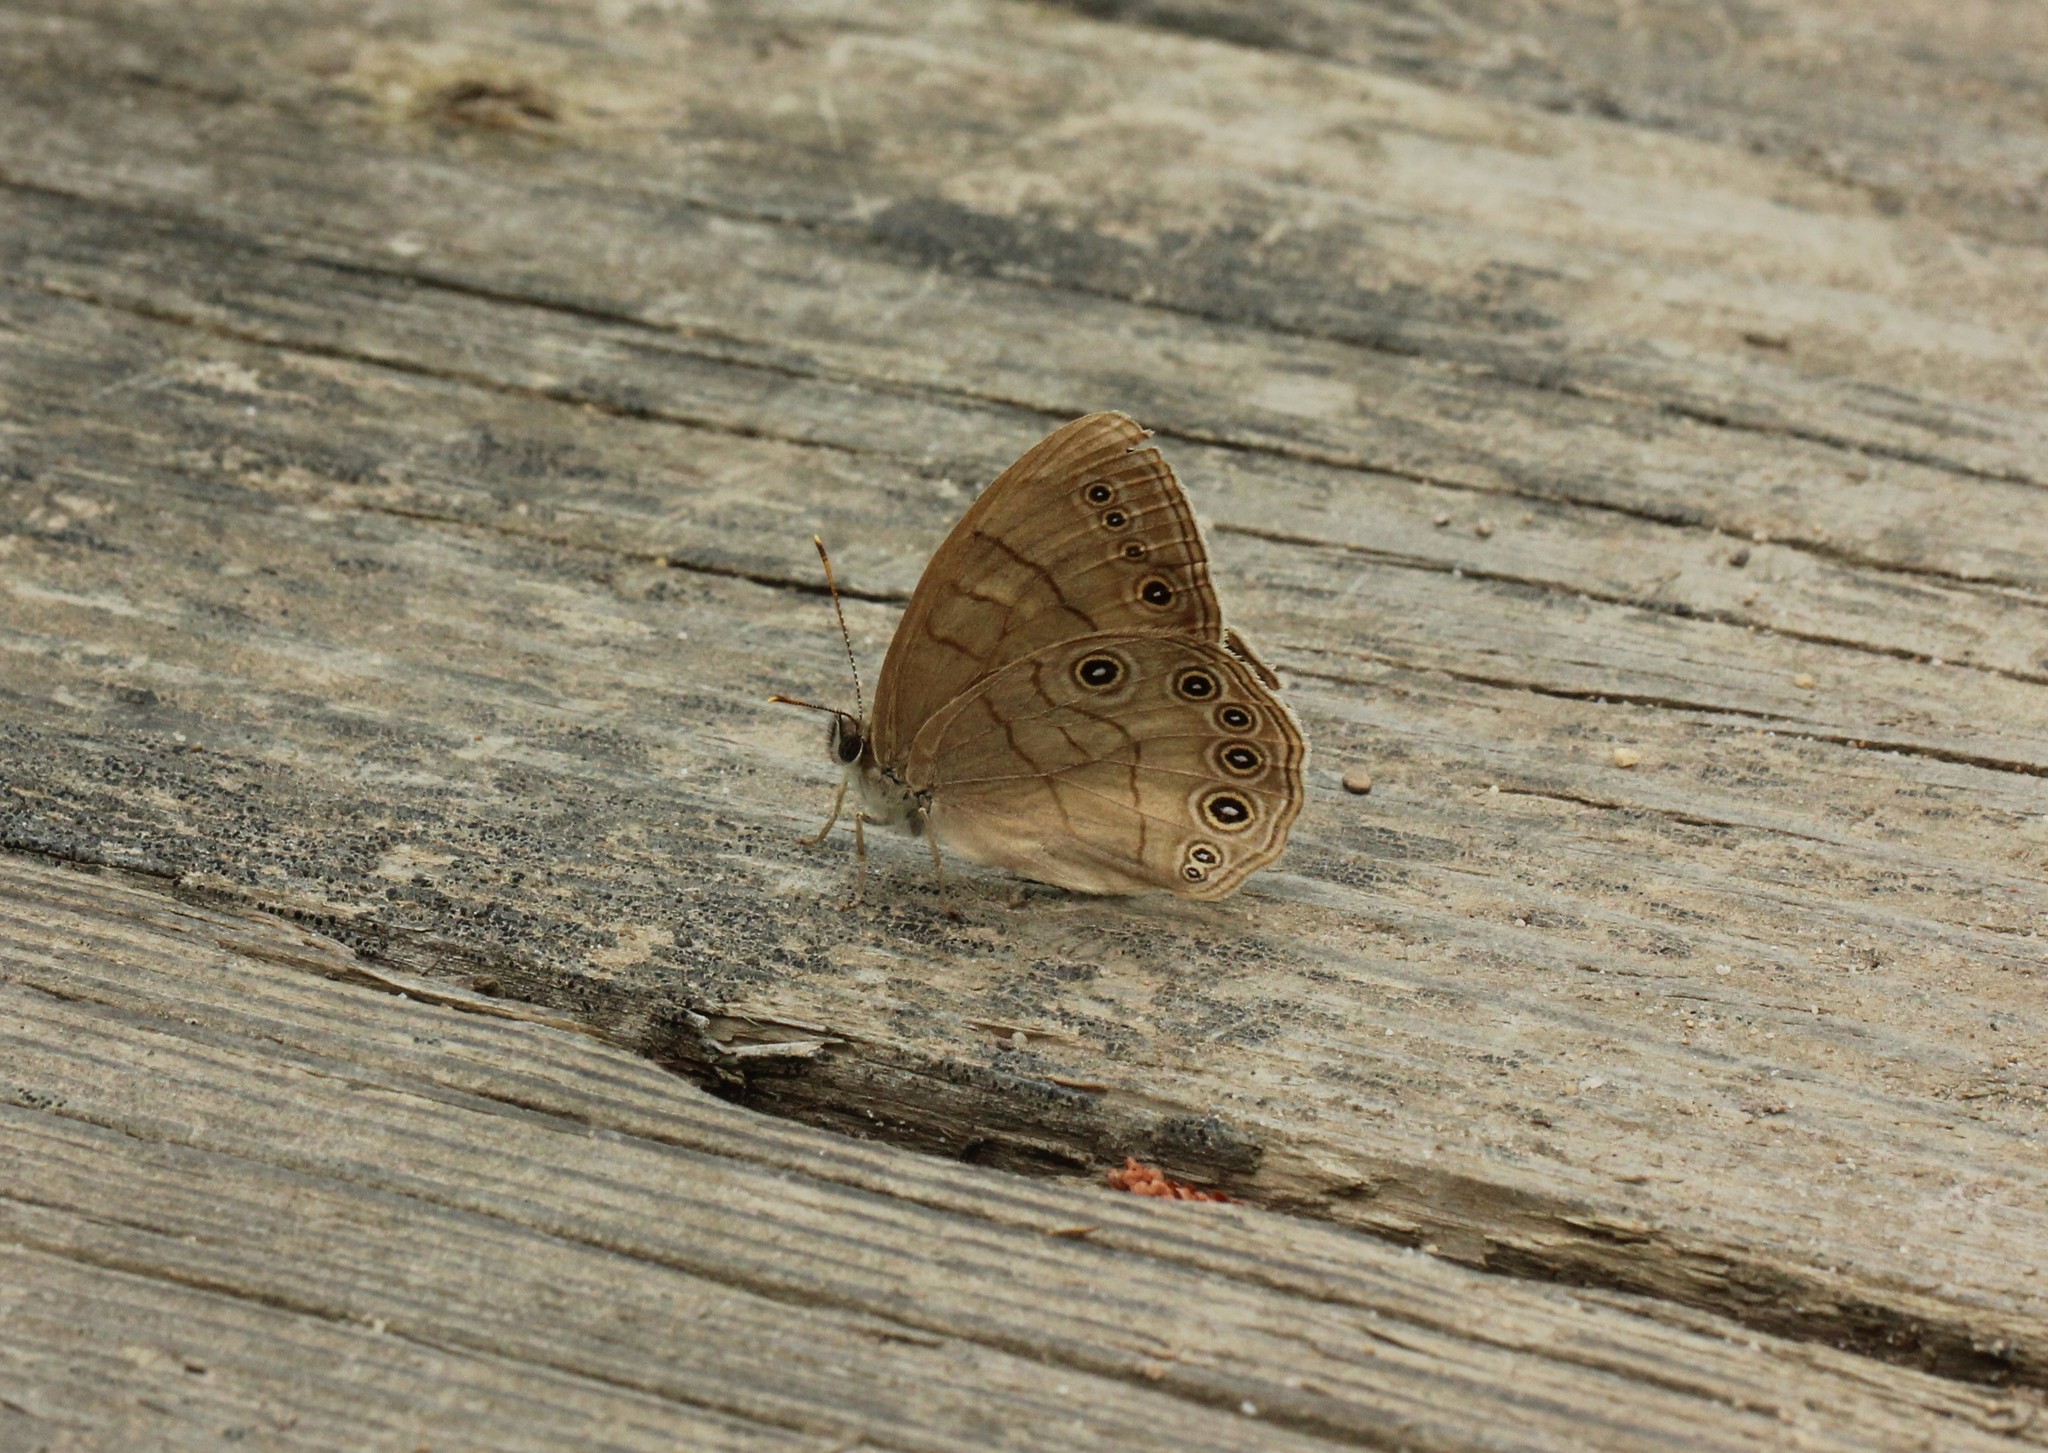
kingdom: Animalia
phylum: Arthropoda
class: Insecta
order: Lepidoptera
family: Nymphalidae
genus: Lethe
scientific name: Lethe eurydice
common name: Eyed brown
